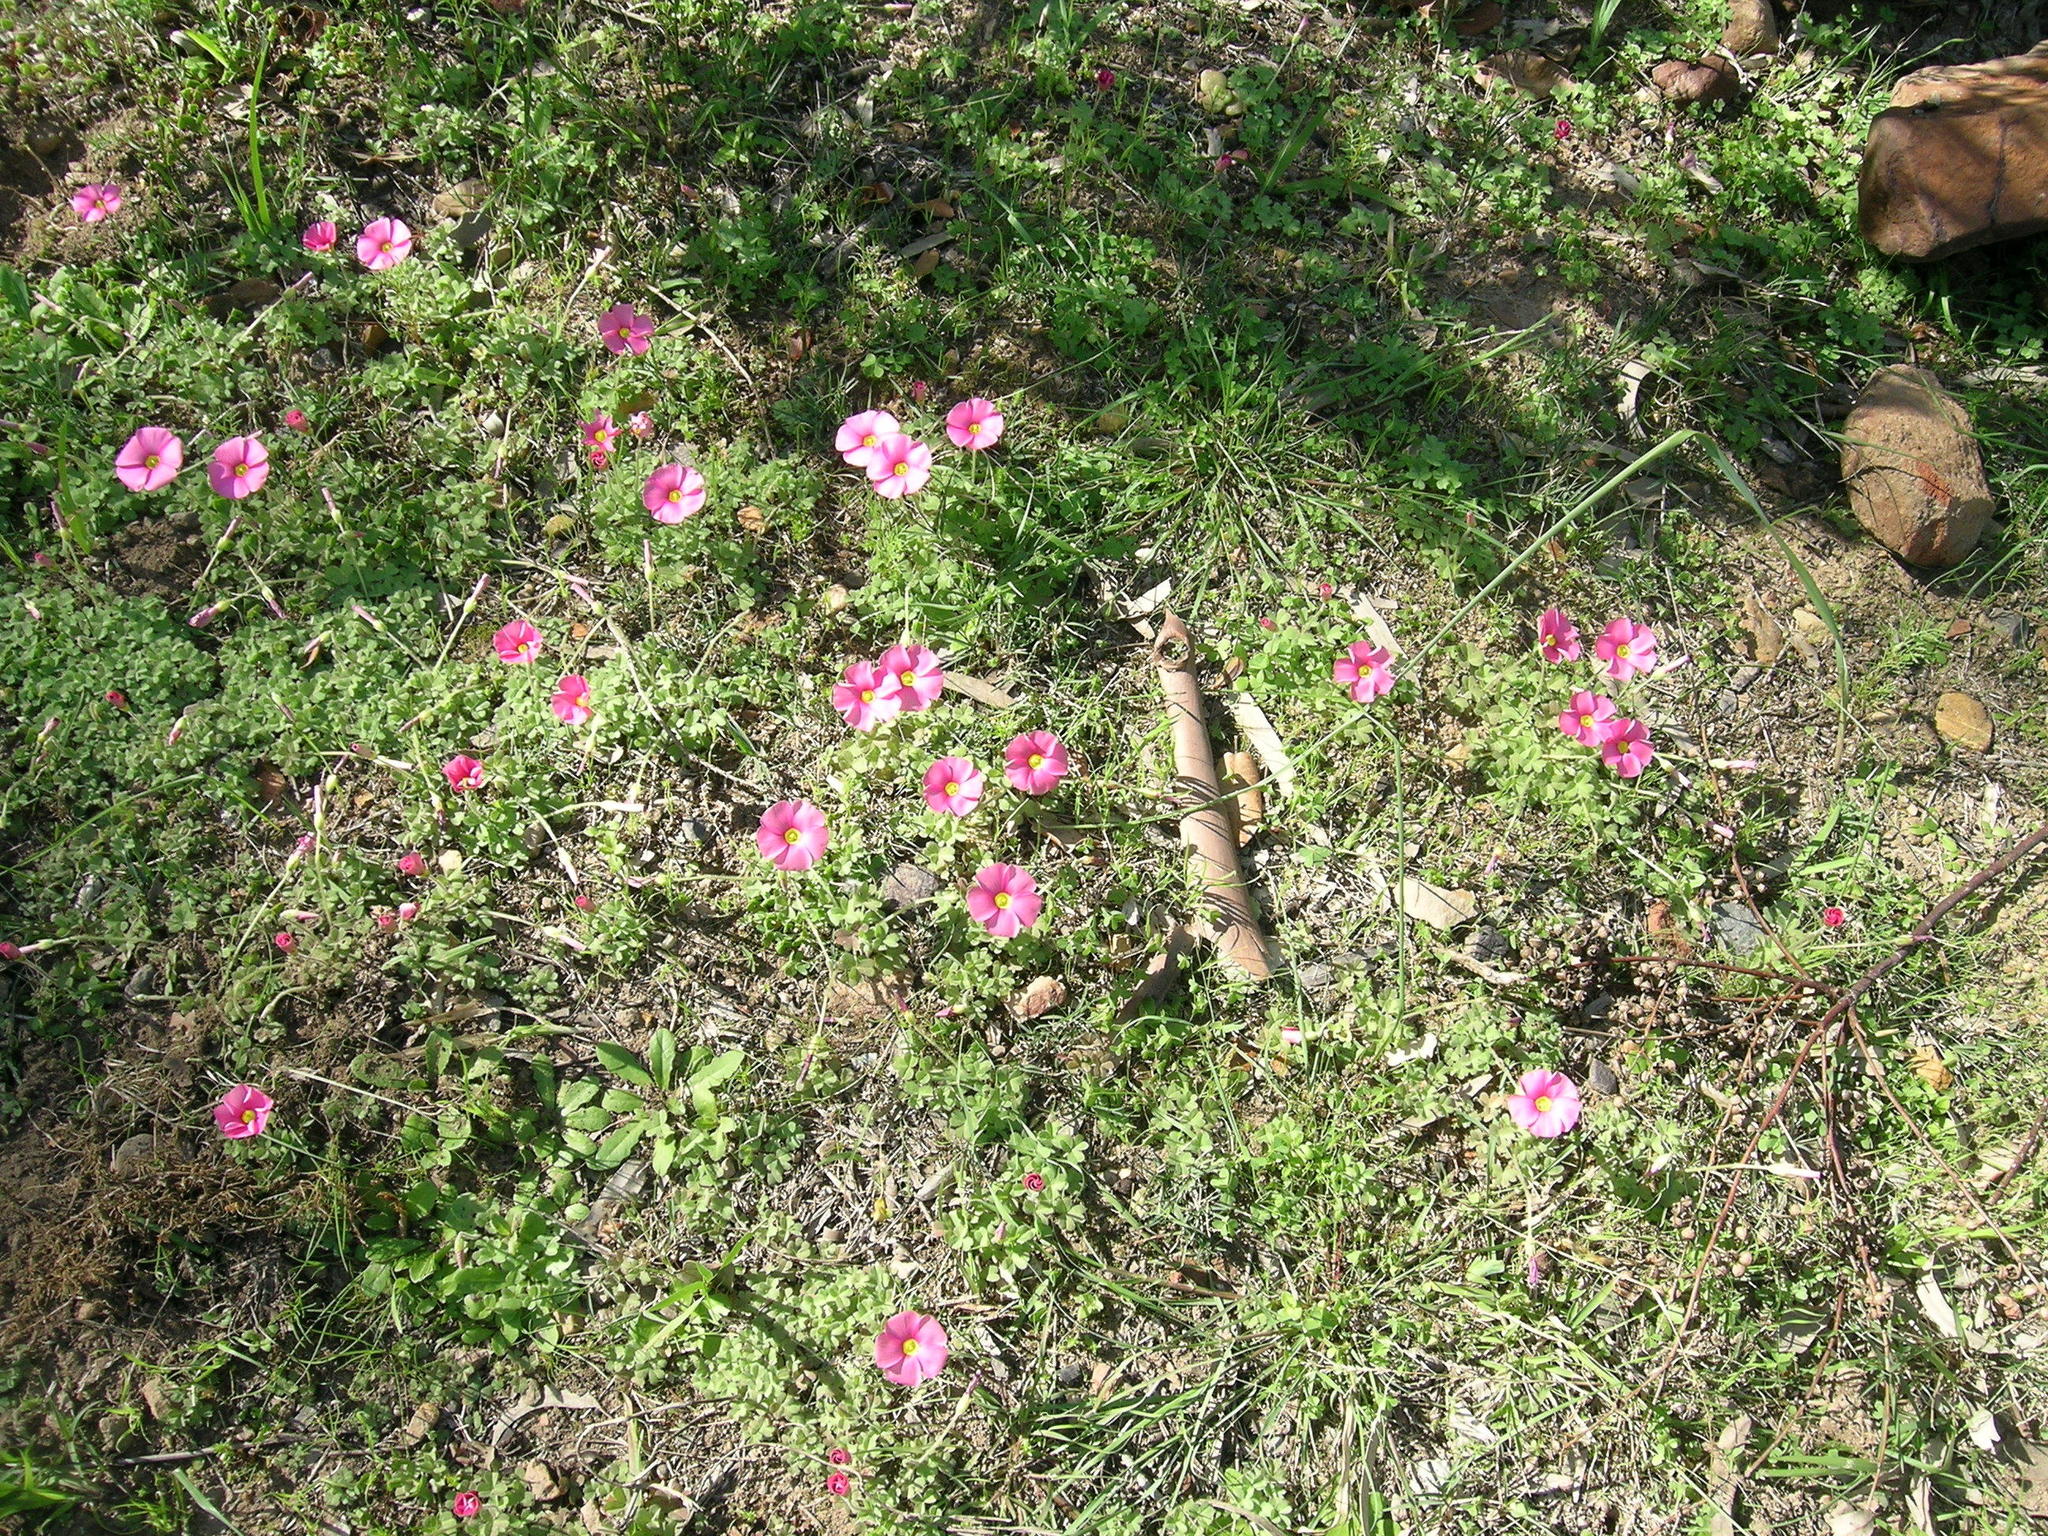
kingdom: Plantae
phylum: Tracheophyta
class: Magnoliopsida
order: Oxalidales
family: Oxalidaceae
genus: Oxalis
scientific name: Oxalis obtusa
